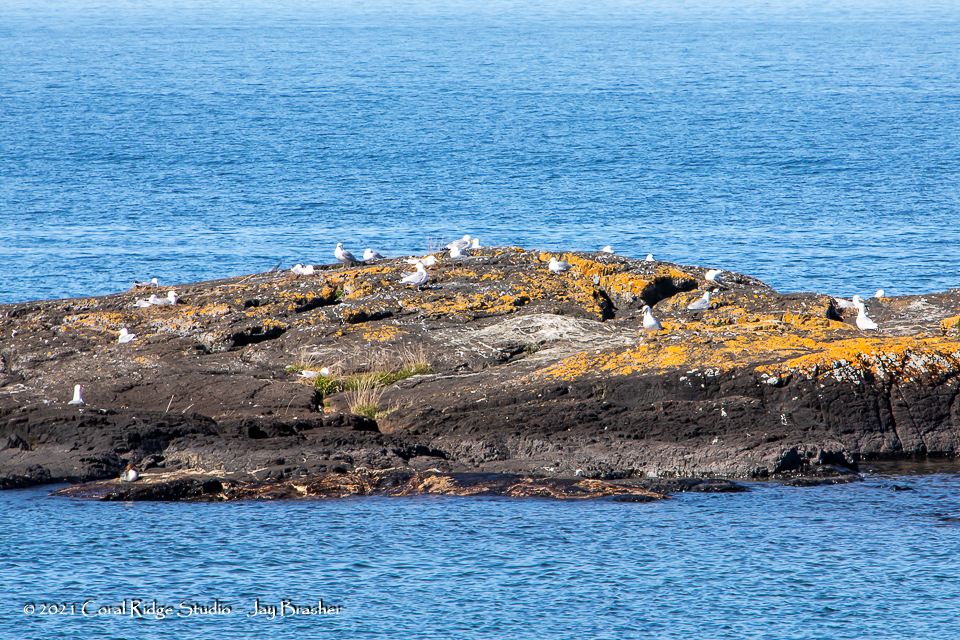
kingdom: Animalia
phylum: Chordata
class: Aves
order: Charadriiformes
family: Laridae
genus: Larus
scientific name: Larus argentatus
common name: Herring gull
